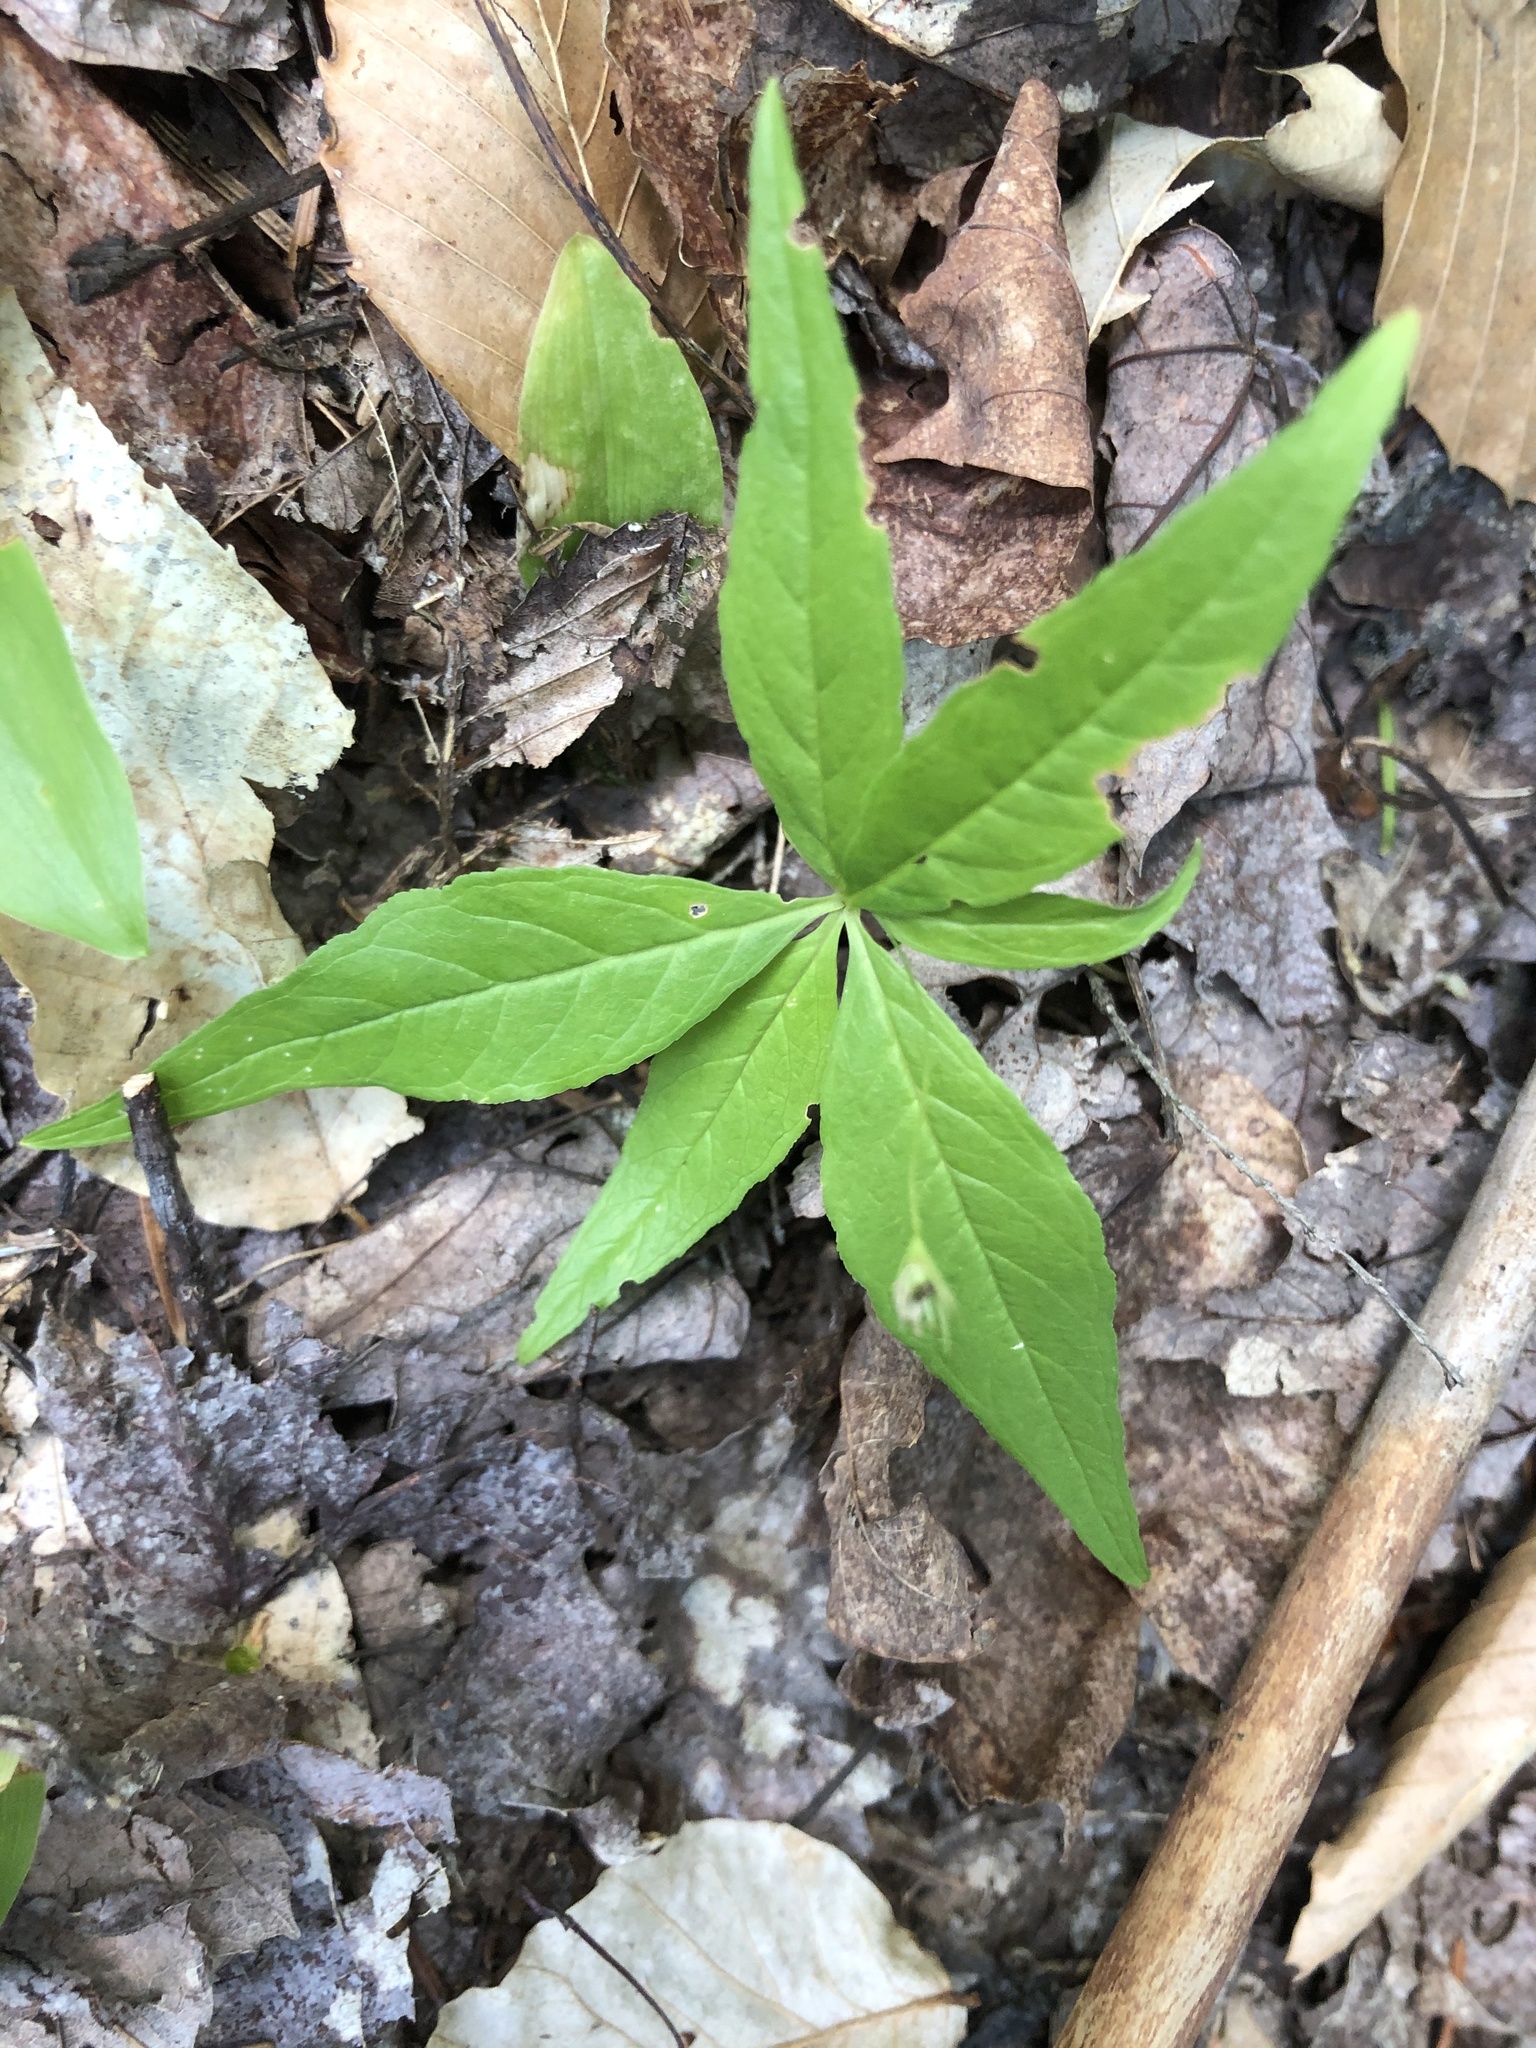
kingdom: Plantae
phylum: Tracheophyta
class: Magnoliopsida
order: Ericales
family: Primulaceae
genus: Lysimachia
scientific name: Lysimachia borealis
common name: American starflower
